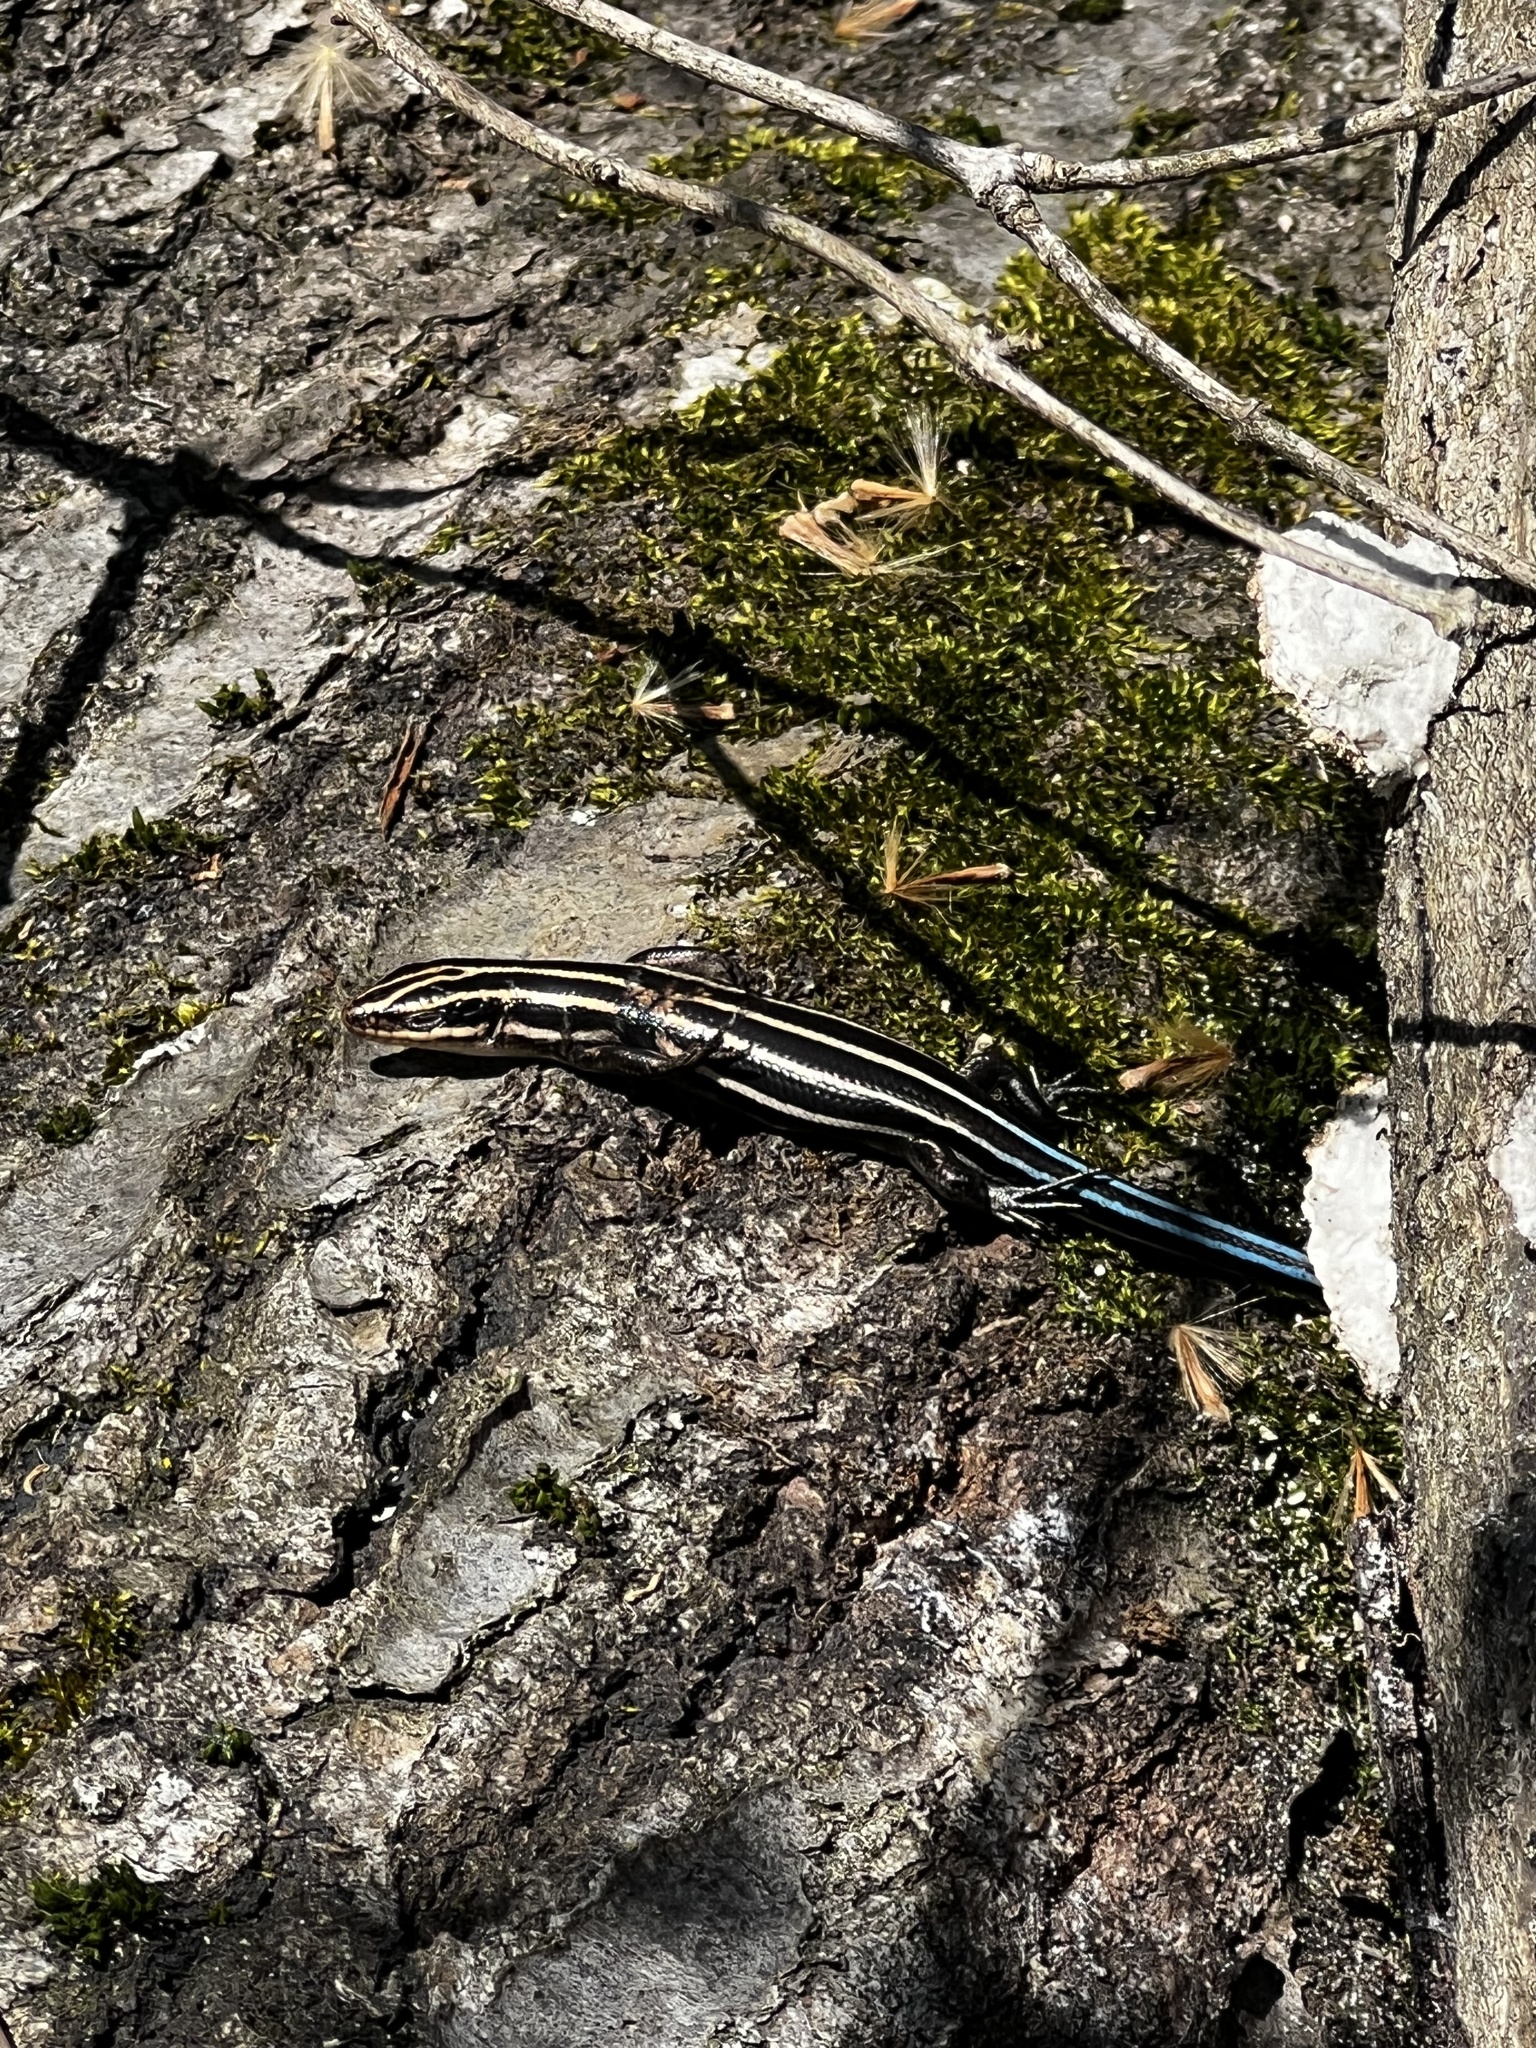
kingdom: Animalia
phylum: Chordata
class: Squamata
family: Scincidae
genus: Plestiodon
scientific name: Plestiodon fasciatus
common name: Five-lined skink
